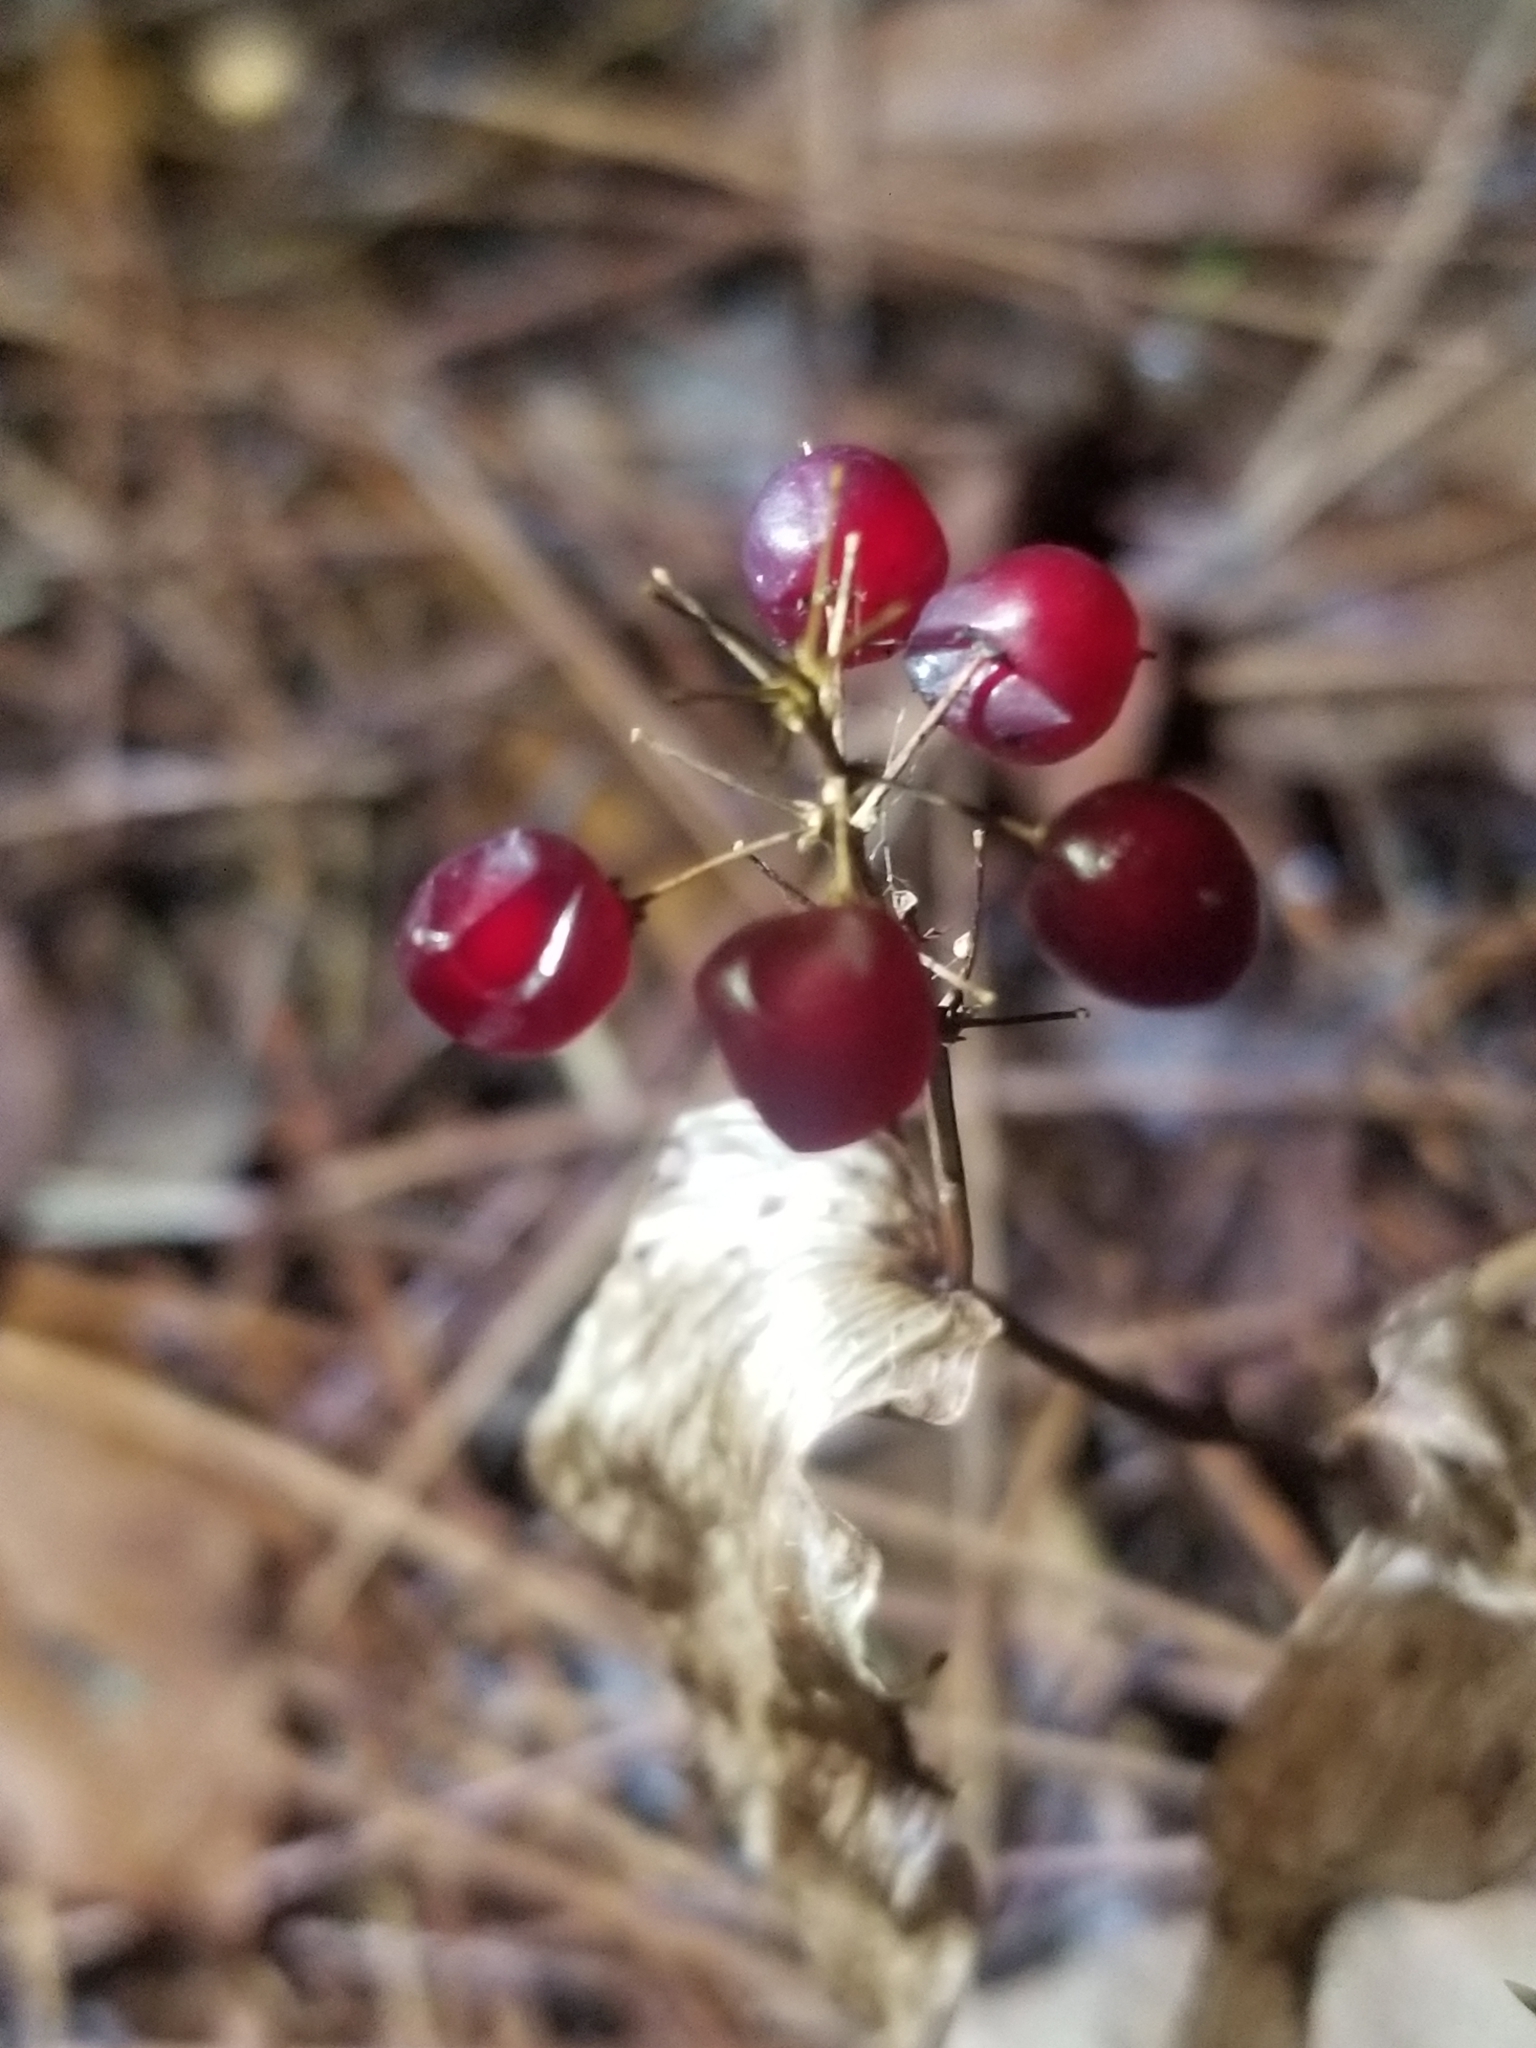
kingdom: Plantae
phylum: Tracheophyta
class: Liliopsida
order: Asparagales
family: Asparagaceae
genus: Maianthemum
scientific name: Maianthemum canadense
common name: False lily-of-the-valley
